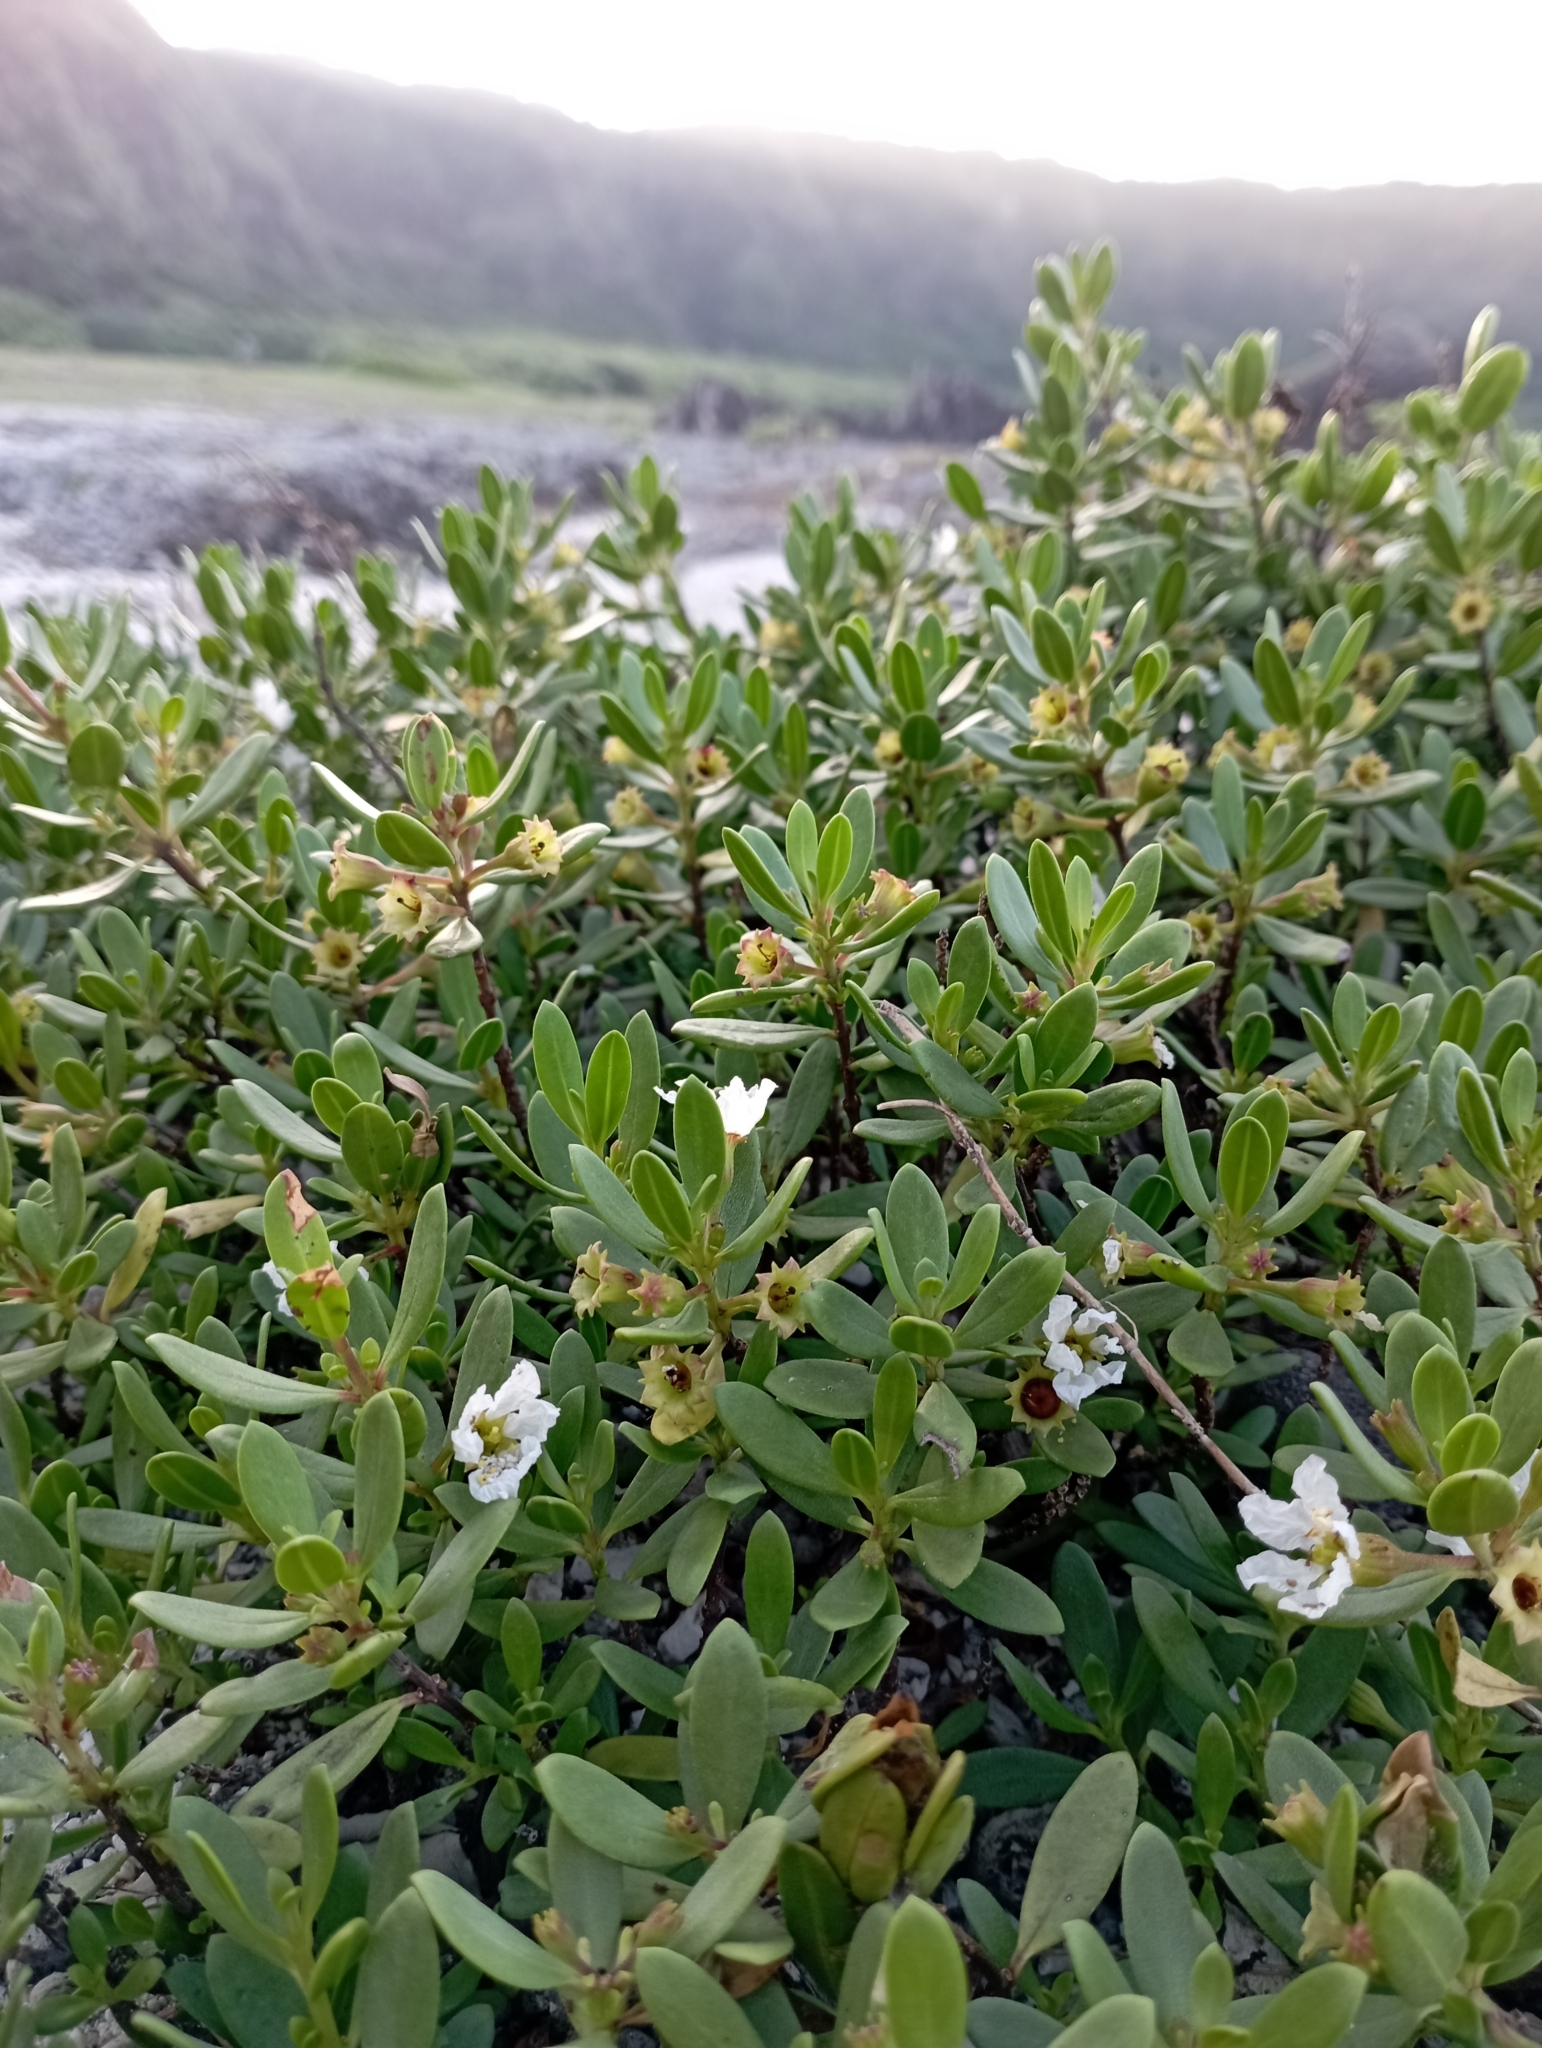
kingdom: Plantae
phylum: Tracheophyta
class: Magnoliopsida
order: Myrtales
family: Lythraceae
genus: Pemphis
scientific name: Pemphis acidula
